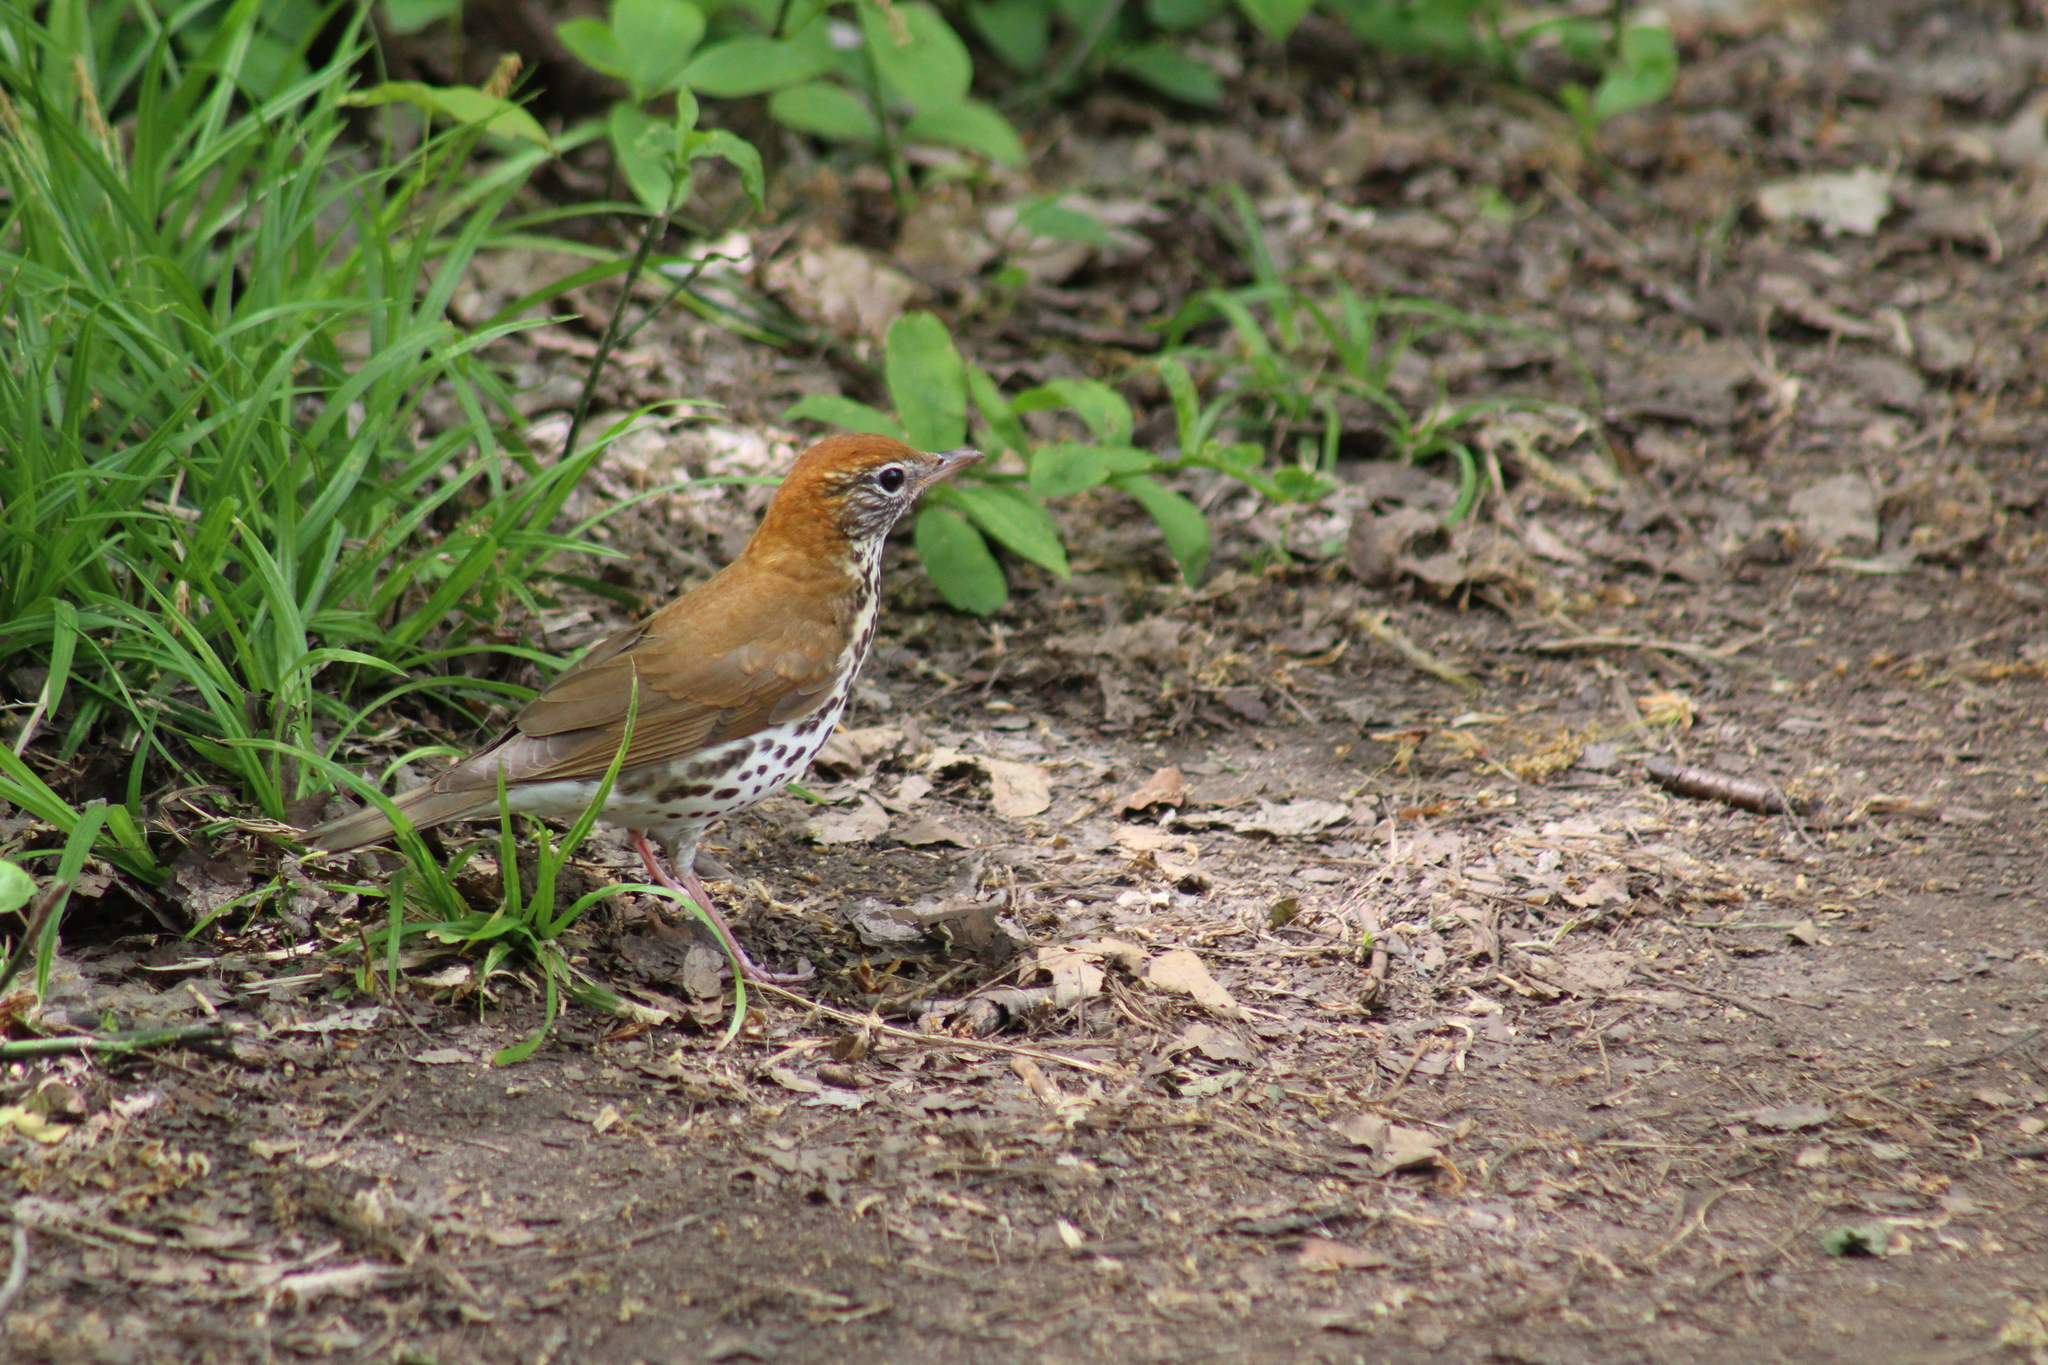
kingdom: Animalia
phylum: Chordata
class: Aves
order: Passeriformes
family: Turdidae
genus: Hylocichla
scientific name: Hylocichla mustelina
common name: Wood thrush
